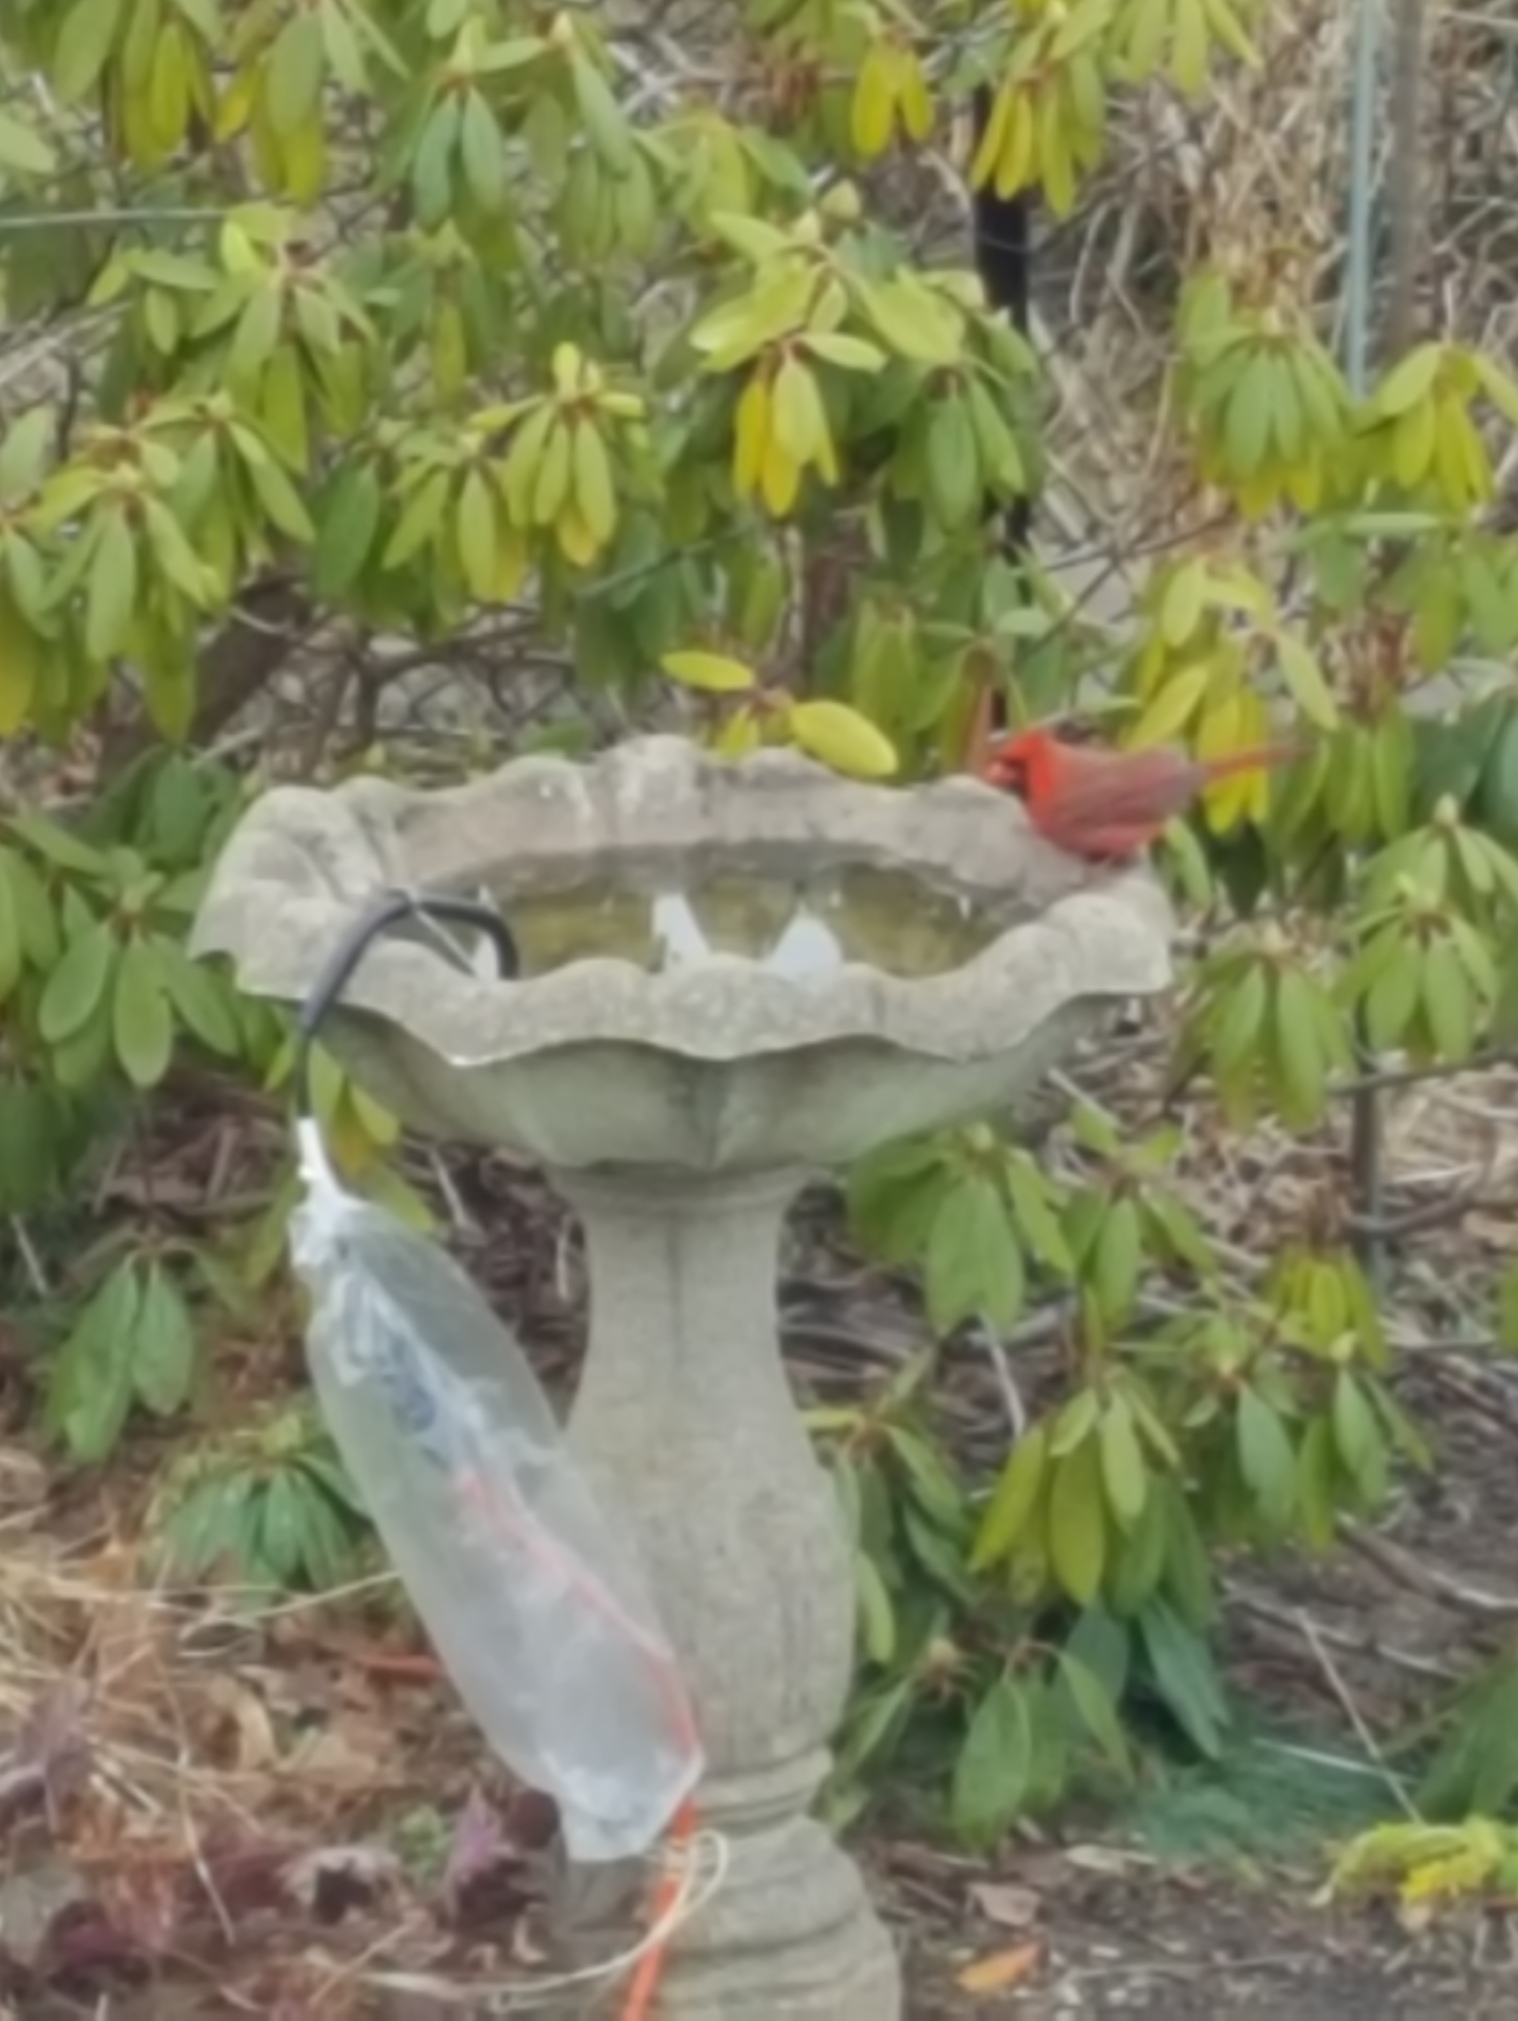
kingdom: Animalia
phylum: Chordata
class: Aves
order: Passeriformes
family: Cardinalidae
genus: Cardinalis
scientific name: Cardinalis cardinalis
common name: Northern cardinal
